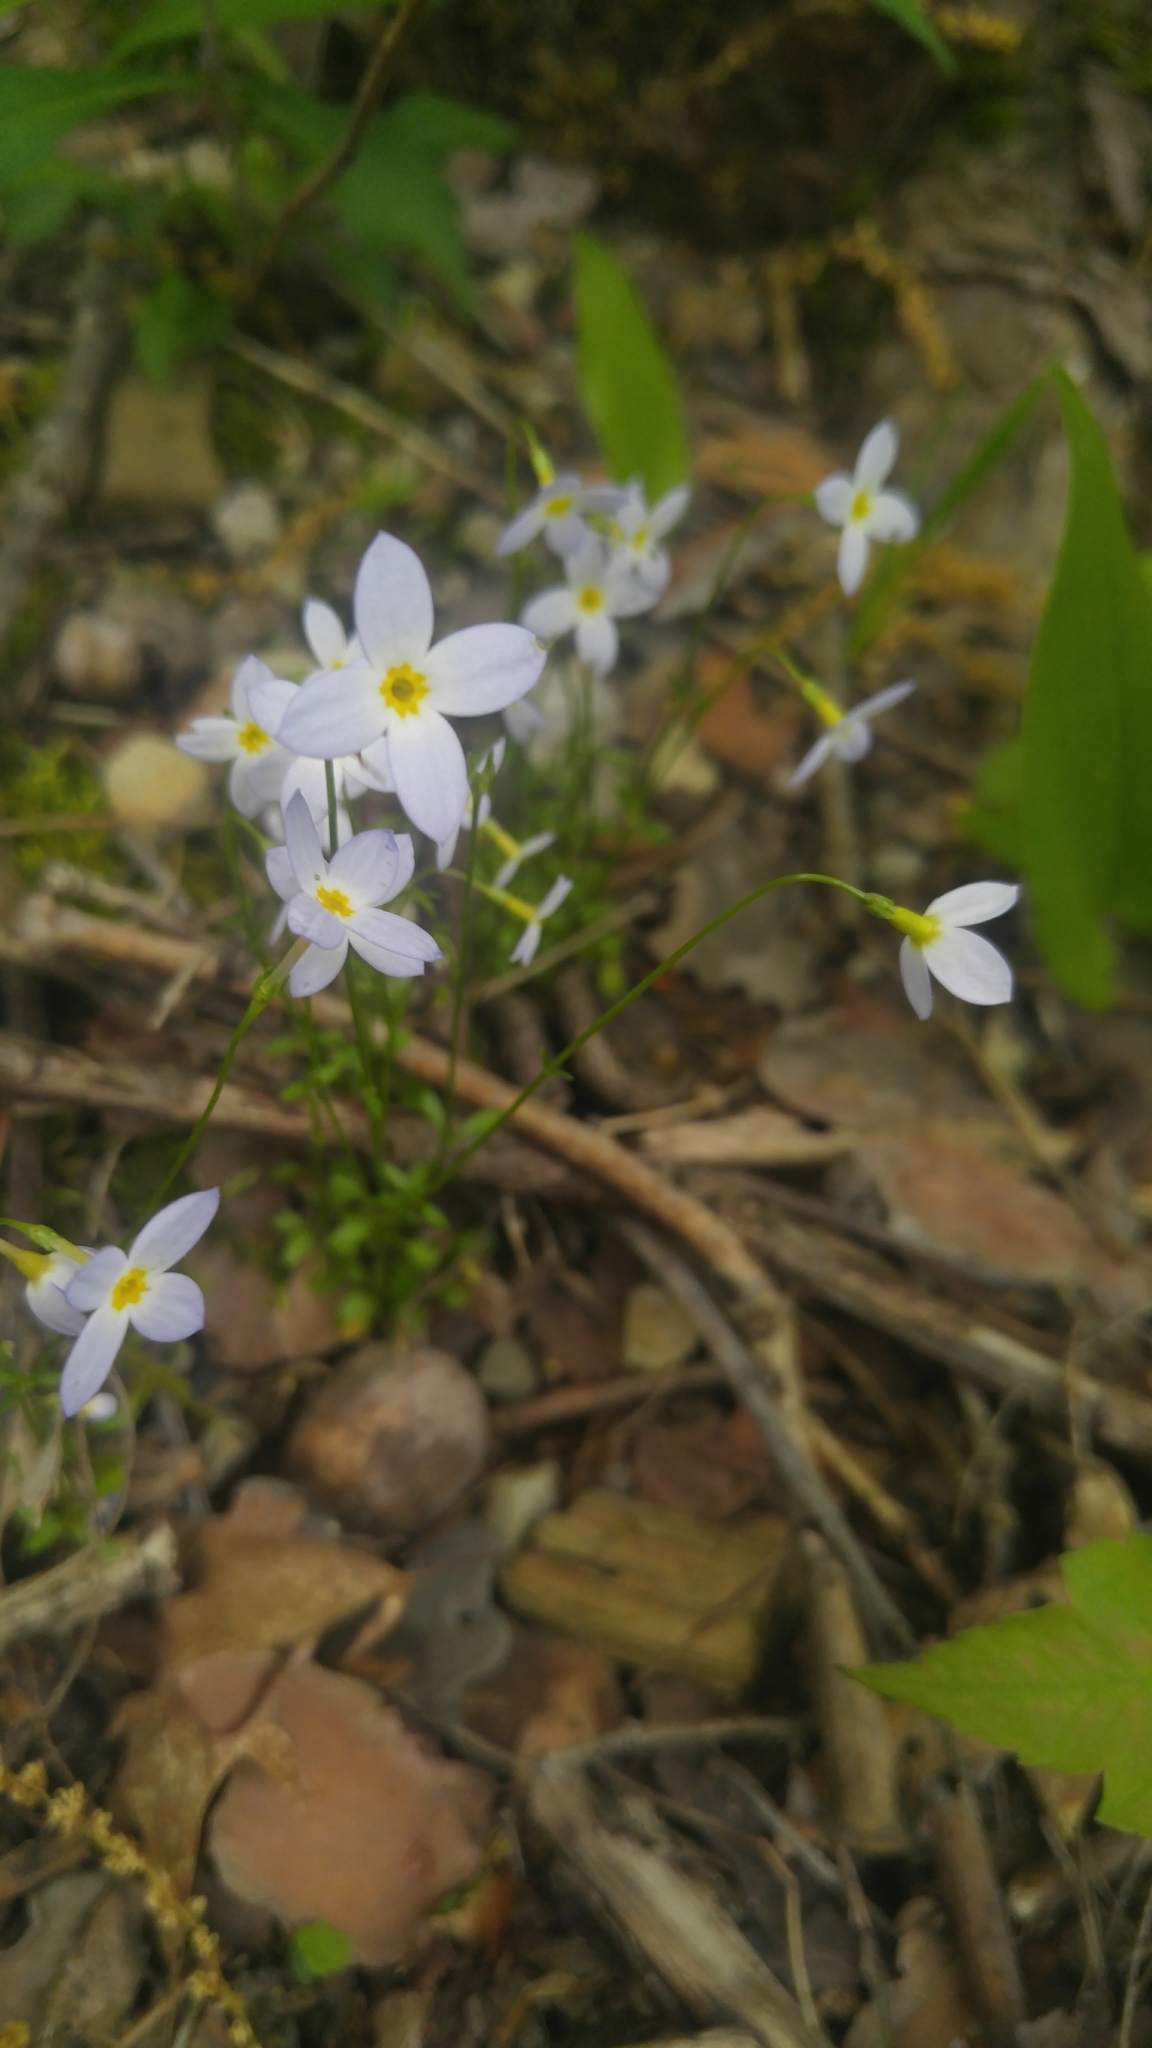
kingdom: Plantae
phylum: Tracheophyta
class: Magnoliopsida
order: Gentianales
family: Rubiaceae
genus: Houstonia
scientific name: Houstonia caerulea
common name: Bluets
